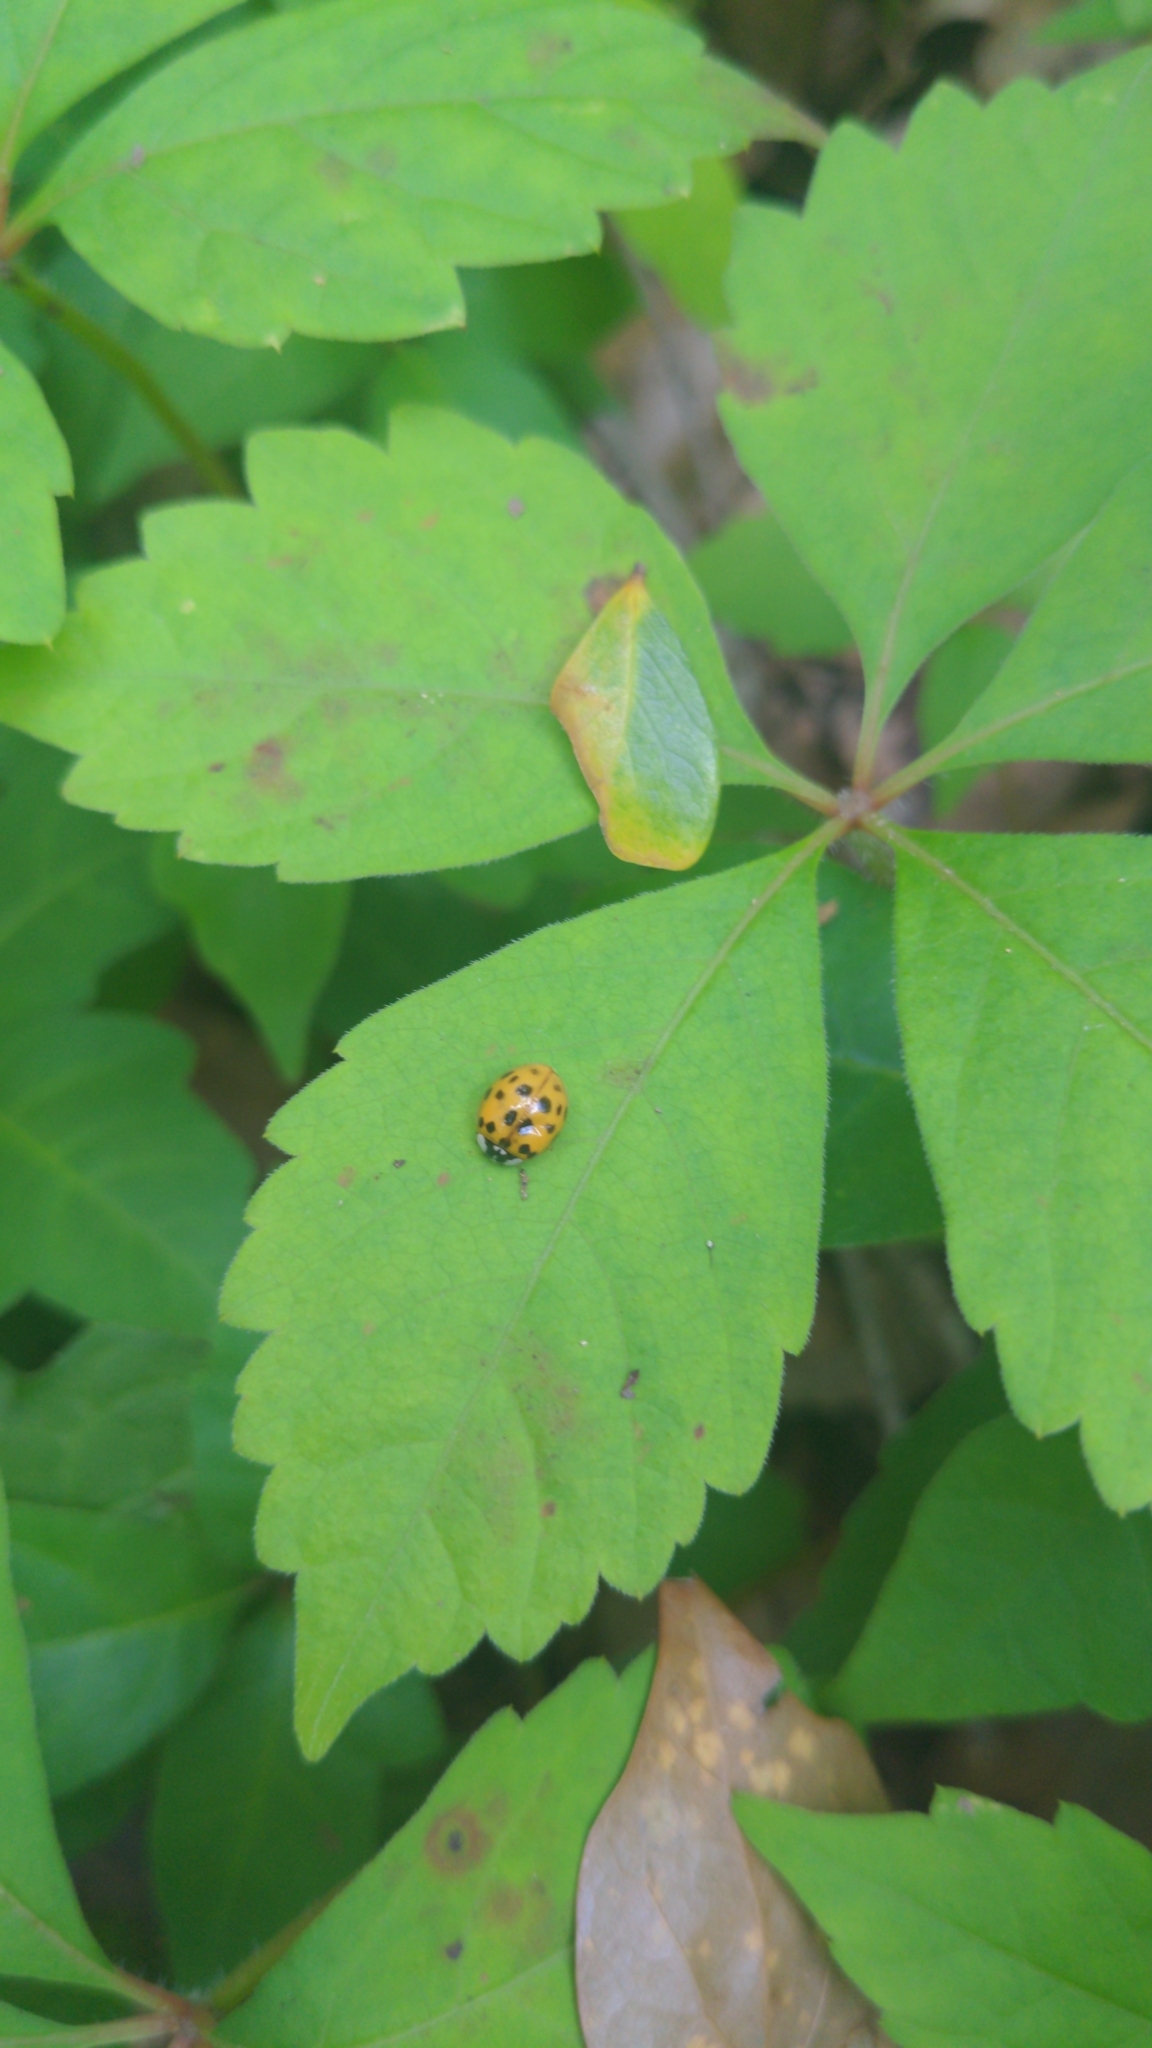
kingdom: Animalia
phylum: Arthropoda
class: Insecta
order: Coleoptera
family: Coccinellidae
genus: Harmonia
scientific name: Harmonia axyridis
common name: Harlequin ladybird
